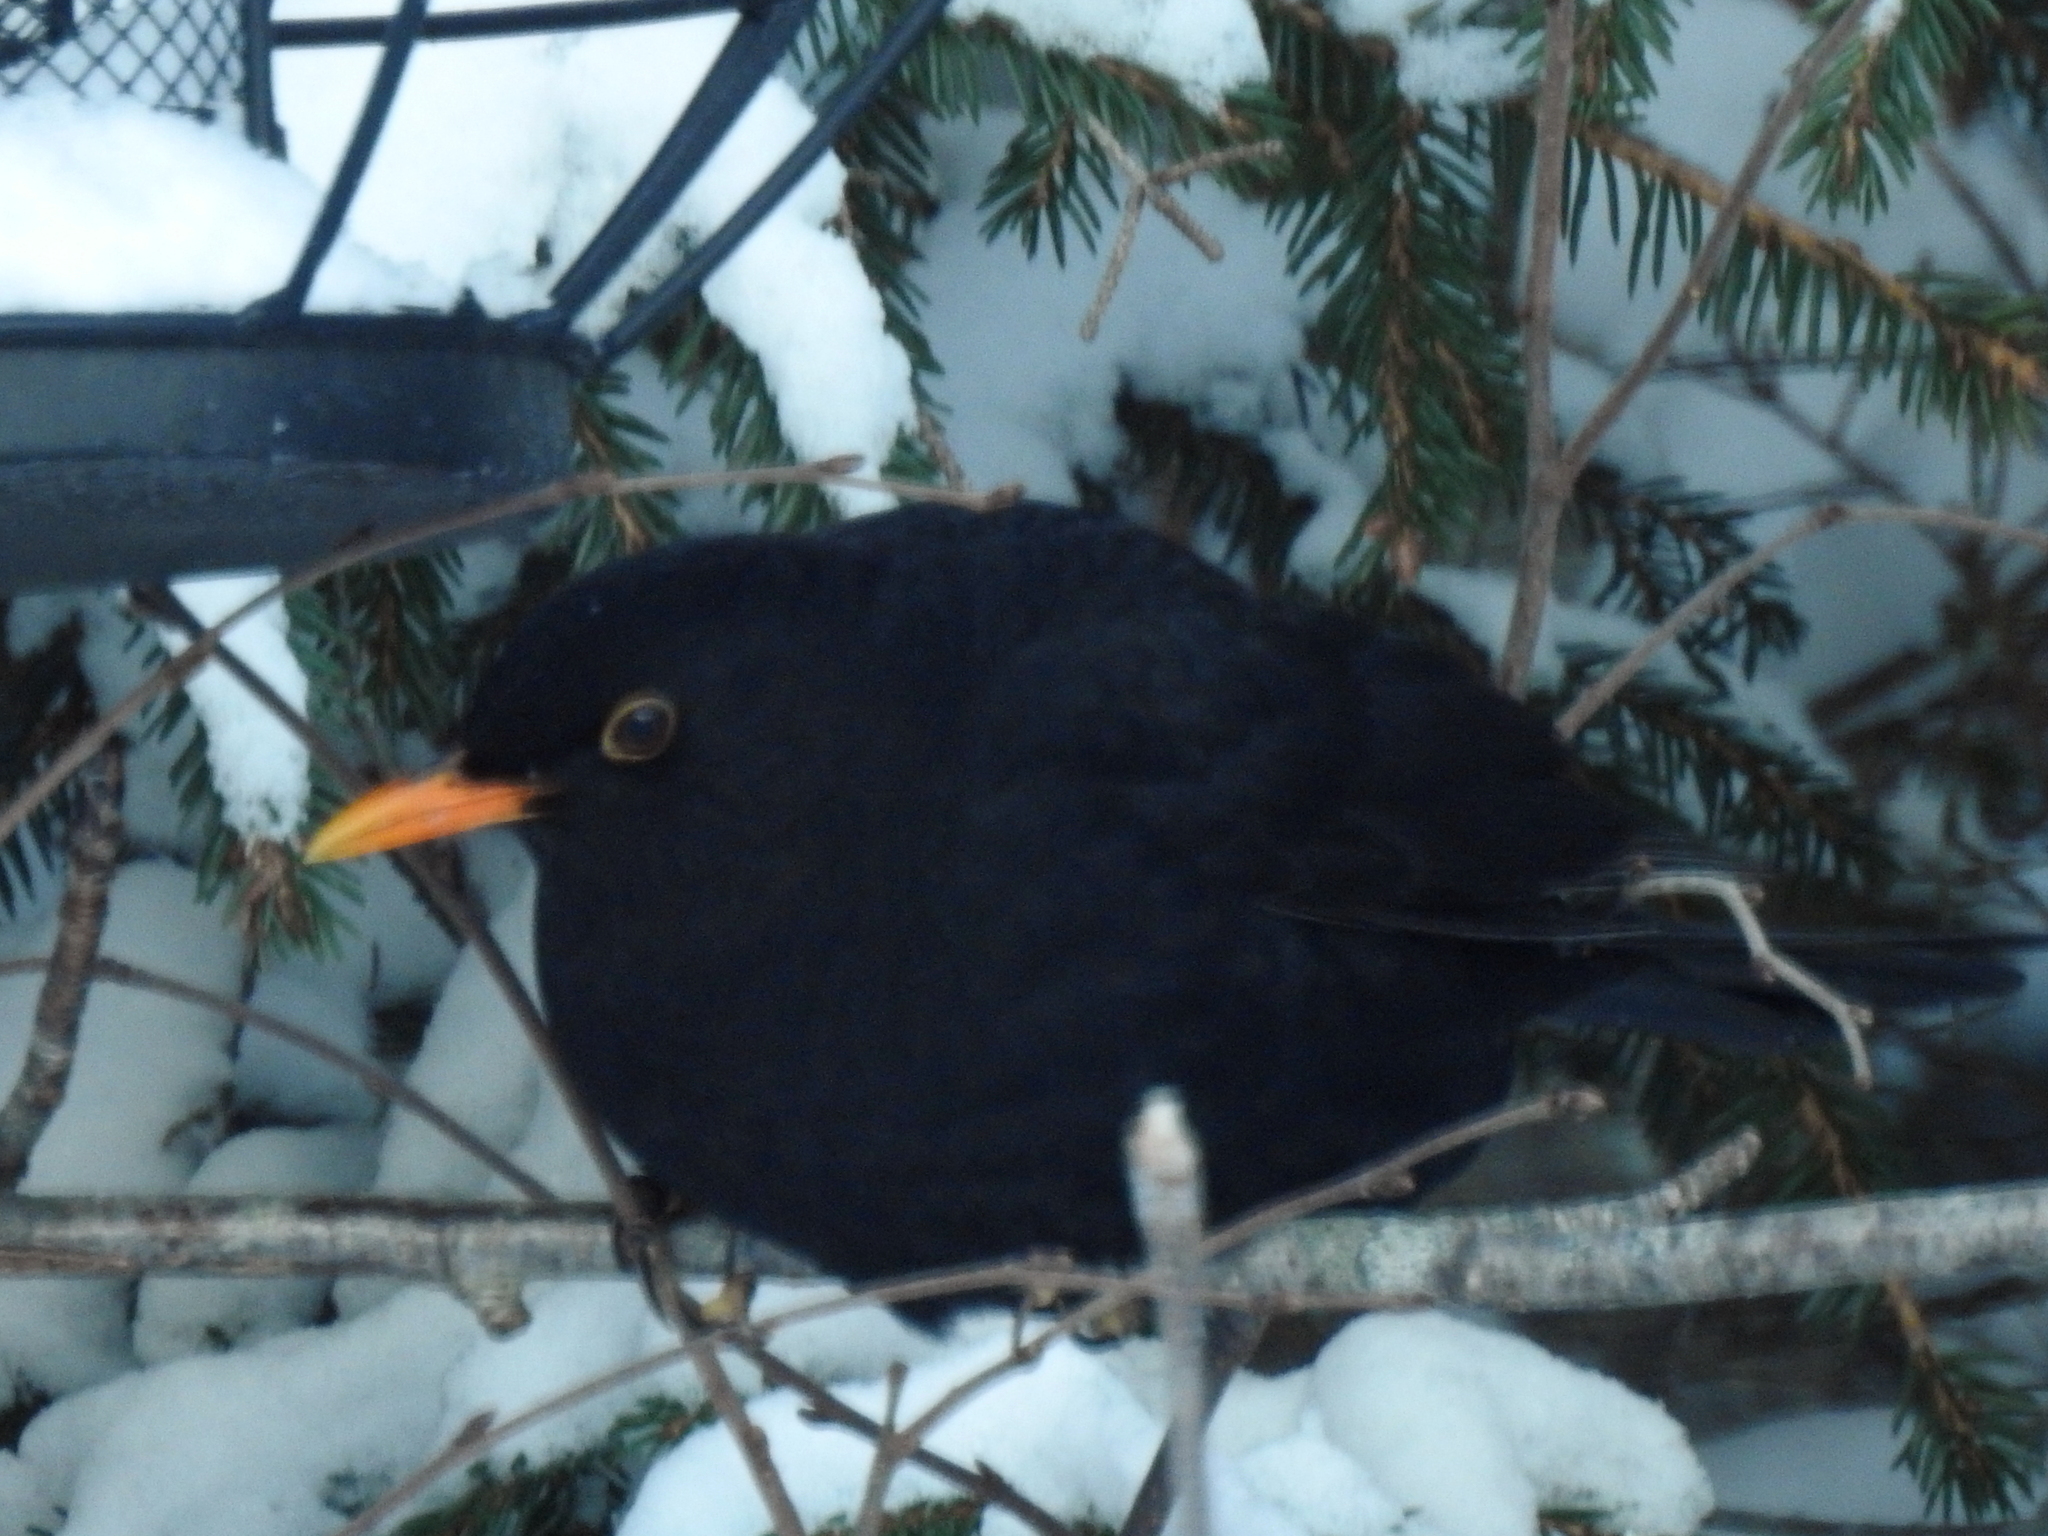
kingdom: Animalia
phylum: Chordata
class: Aves
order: Passeriformes
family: Turdidae
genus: Turdus
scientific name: Turdus merula
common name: Common blackbird
